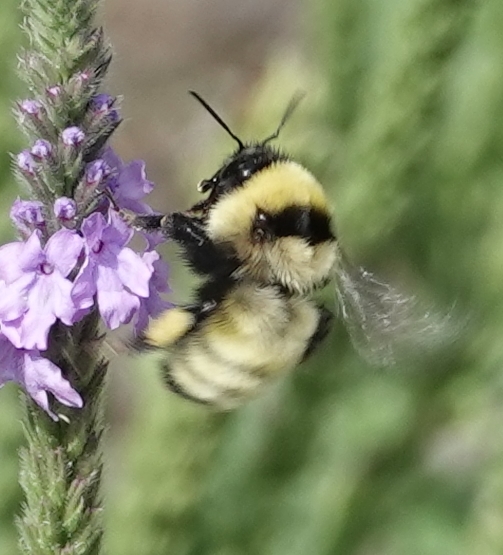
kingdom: Animalia
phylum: Arthropoda
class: Insecta
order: Hymenoptera
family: Apidae
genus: Bombus
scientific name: Bombus fervidus
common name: Yellow bumble bee
